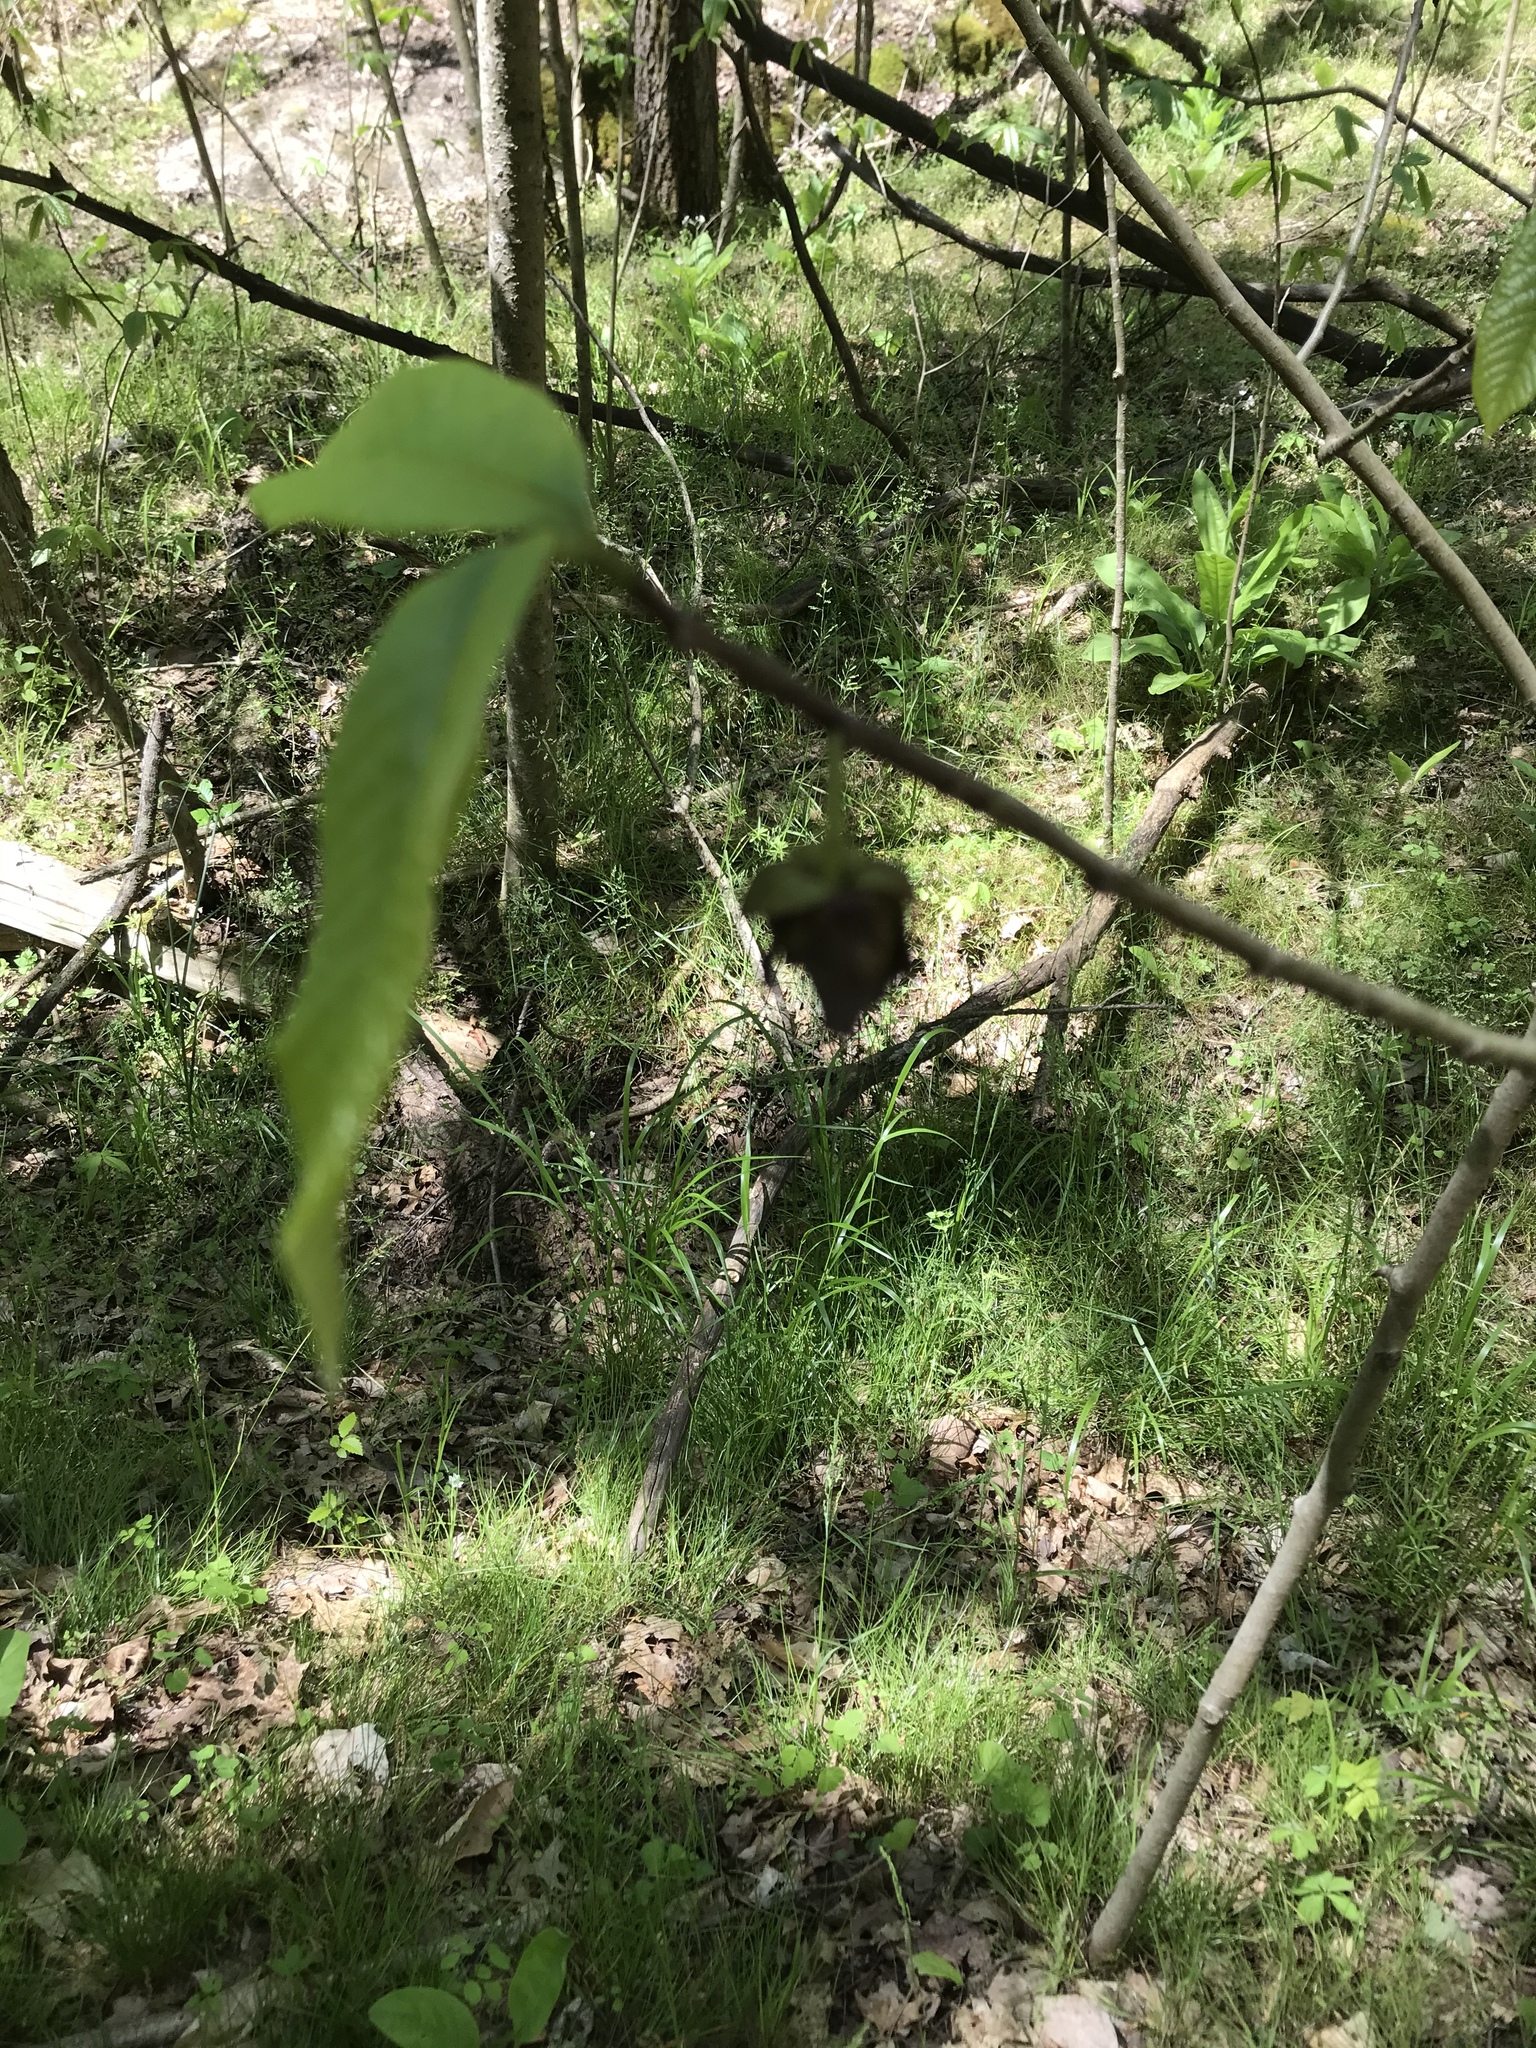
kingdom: Plantae
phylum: Tracheophyta
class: Magnoliopsida
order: Magnoliales
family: Annonaceae
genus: Asimina
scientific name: Asimina triloba
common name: Dog-banana
